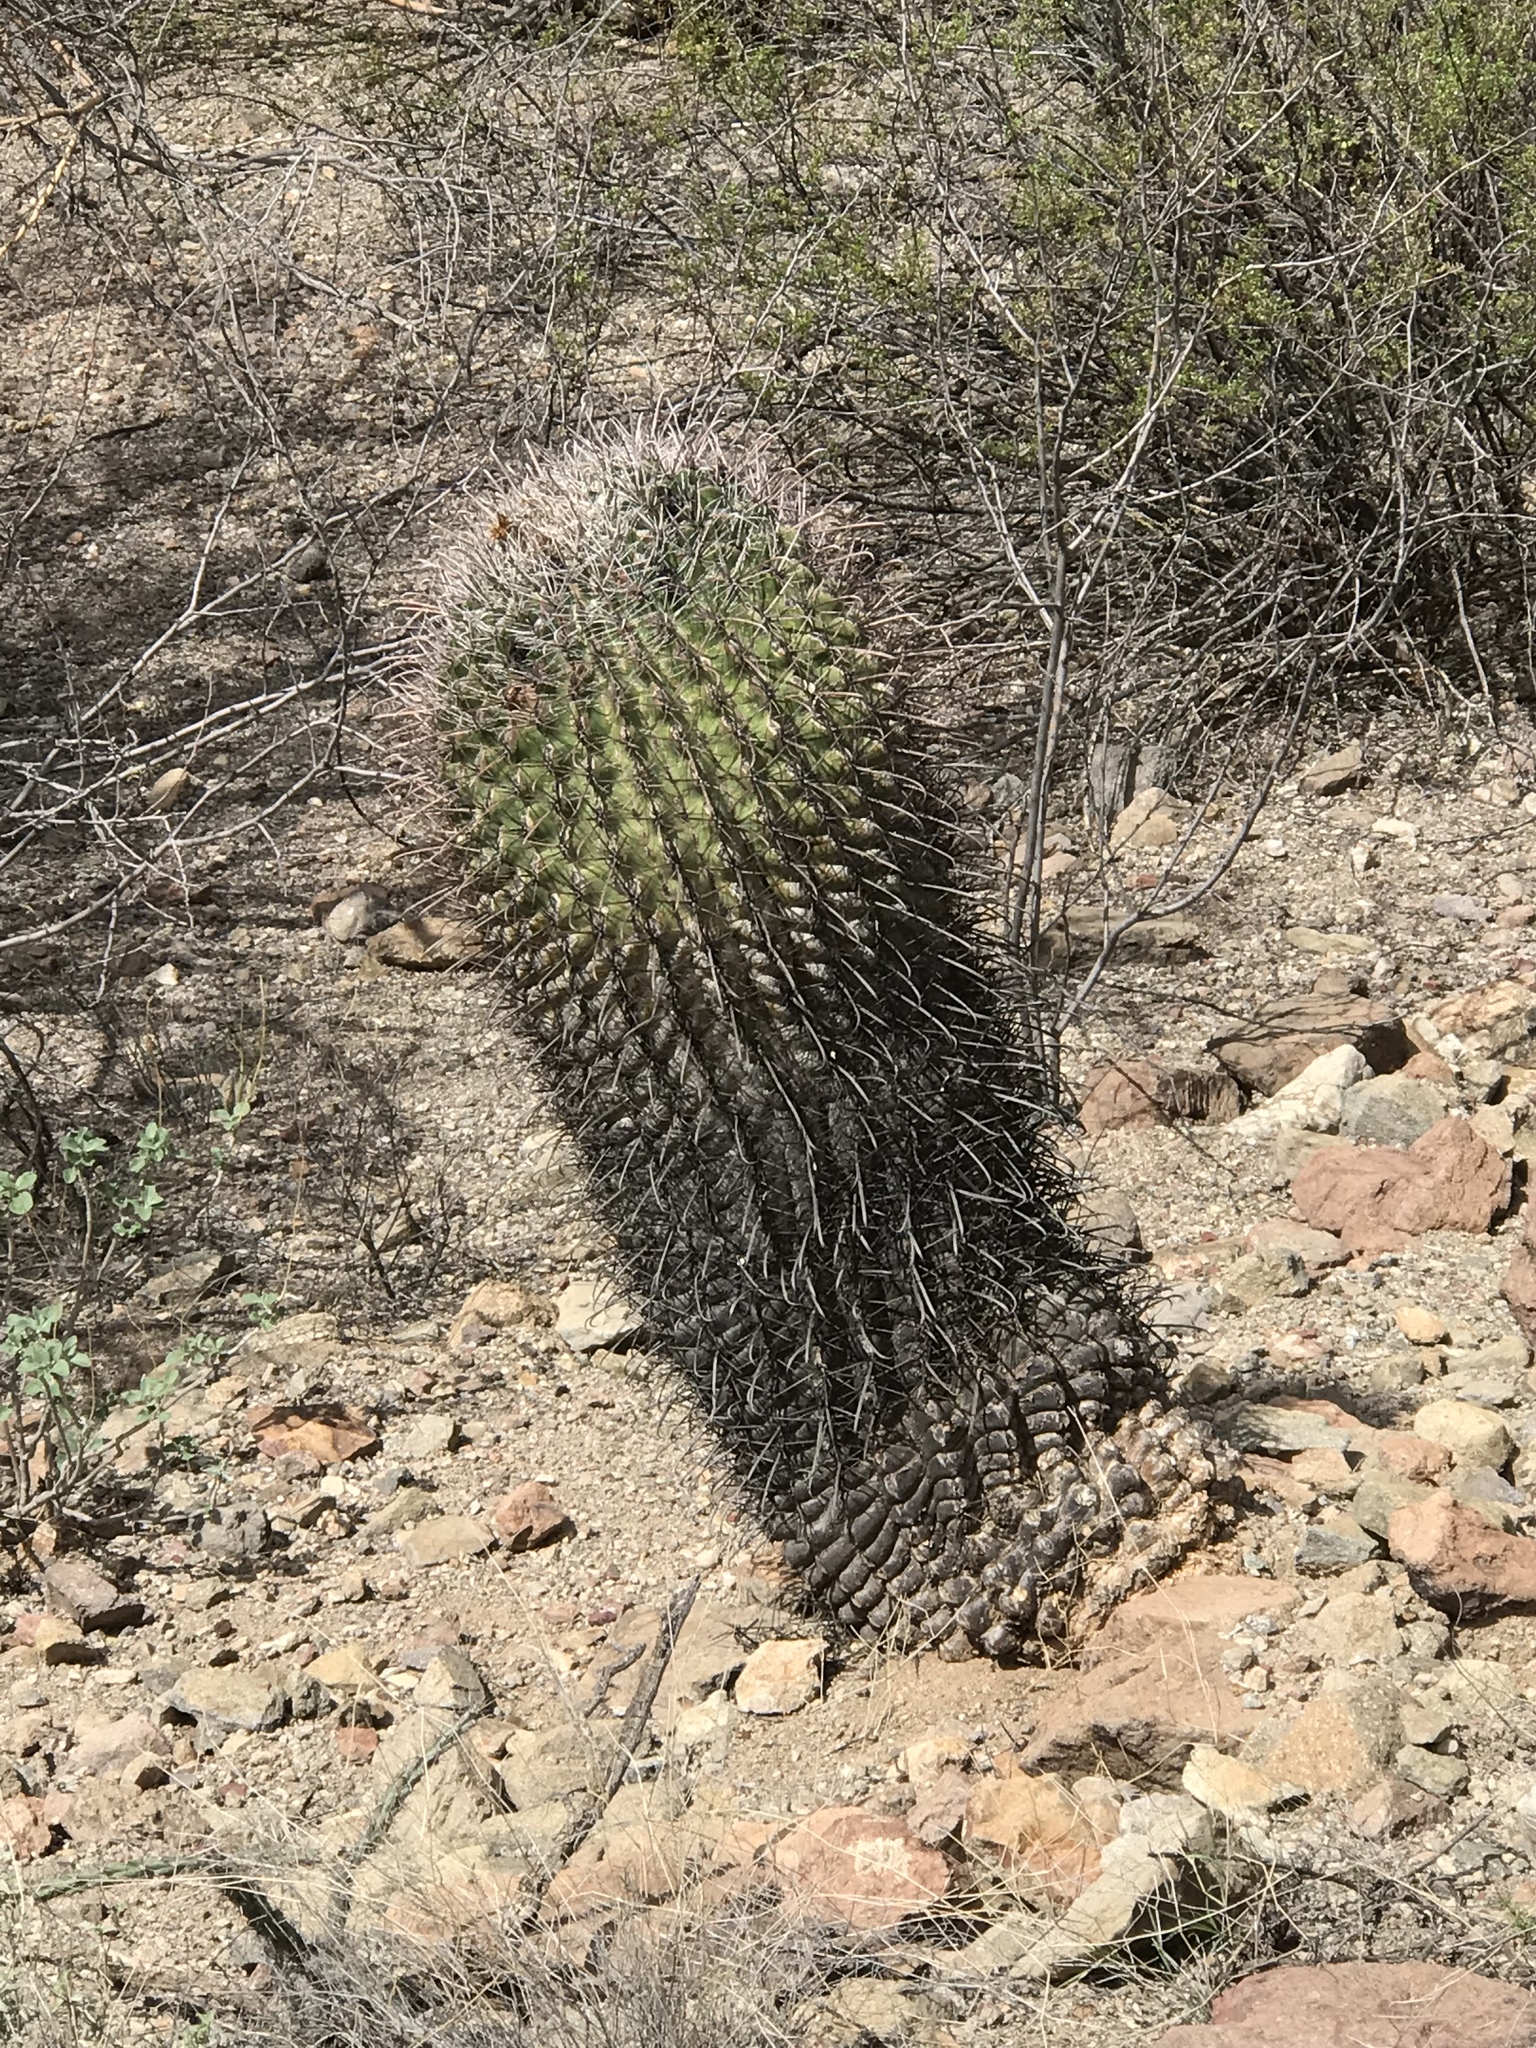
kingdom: Plantae
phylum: Tracheophyta
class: Magnoliopsida
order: Caryophyllales
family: Cactaceae
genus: Ferocactus
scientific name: Ferocactus wislizeni
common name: Candy barrel cactus
